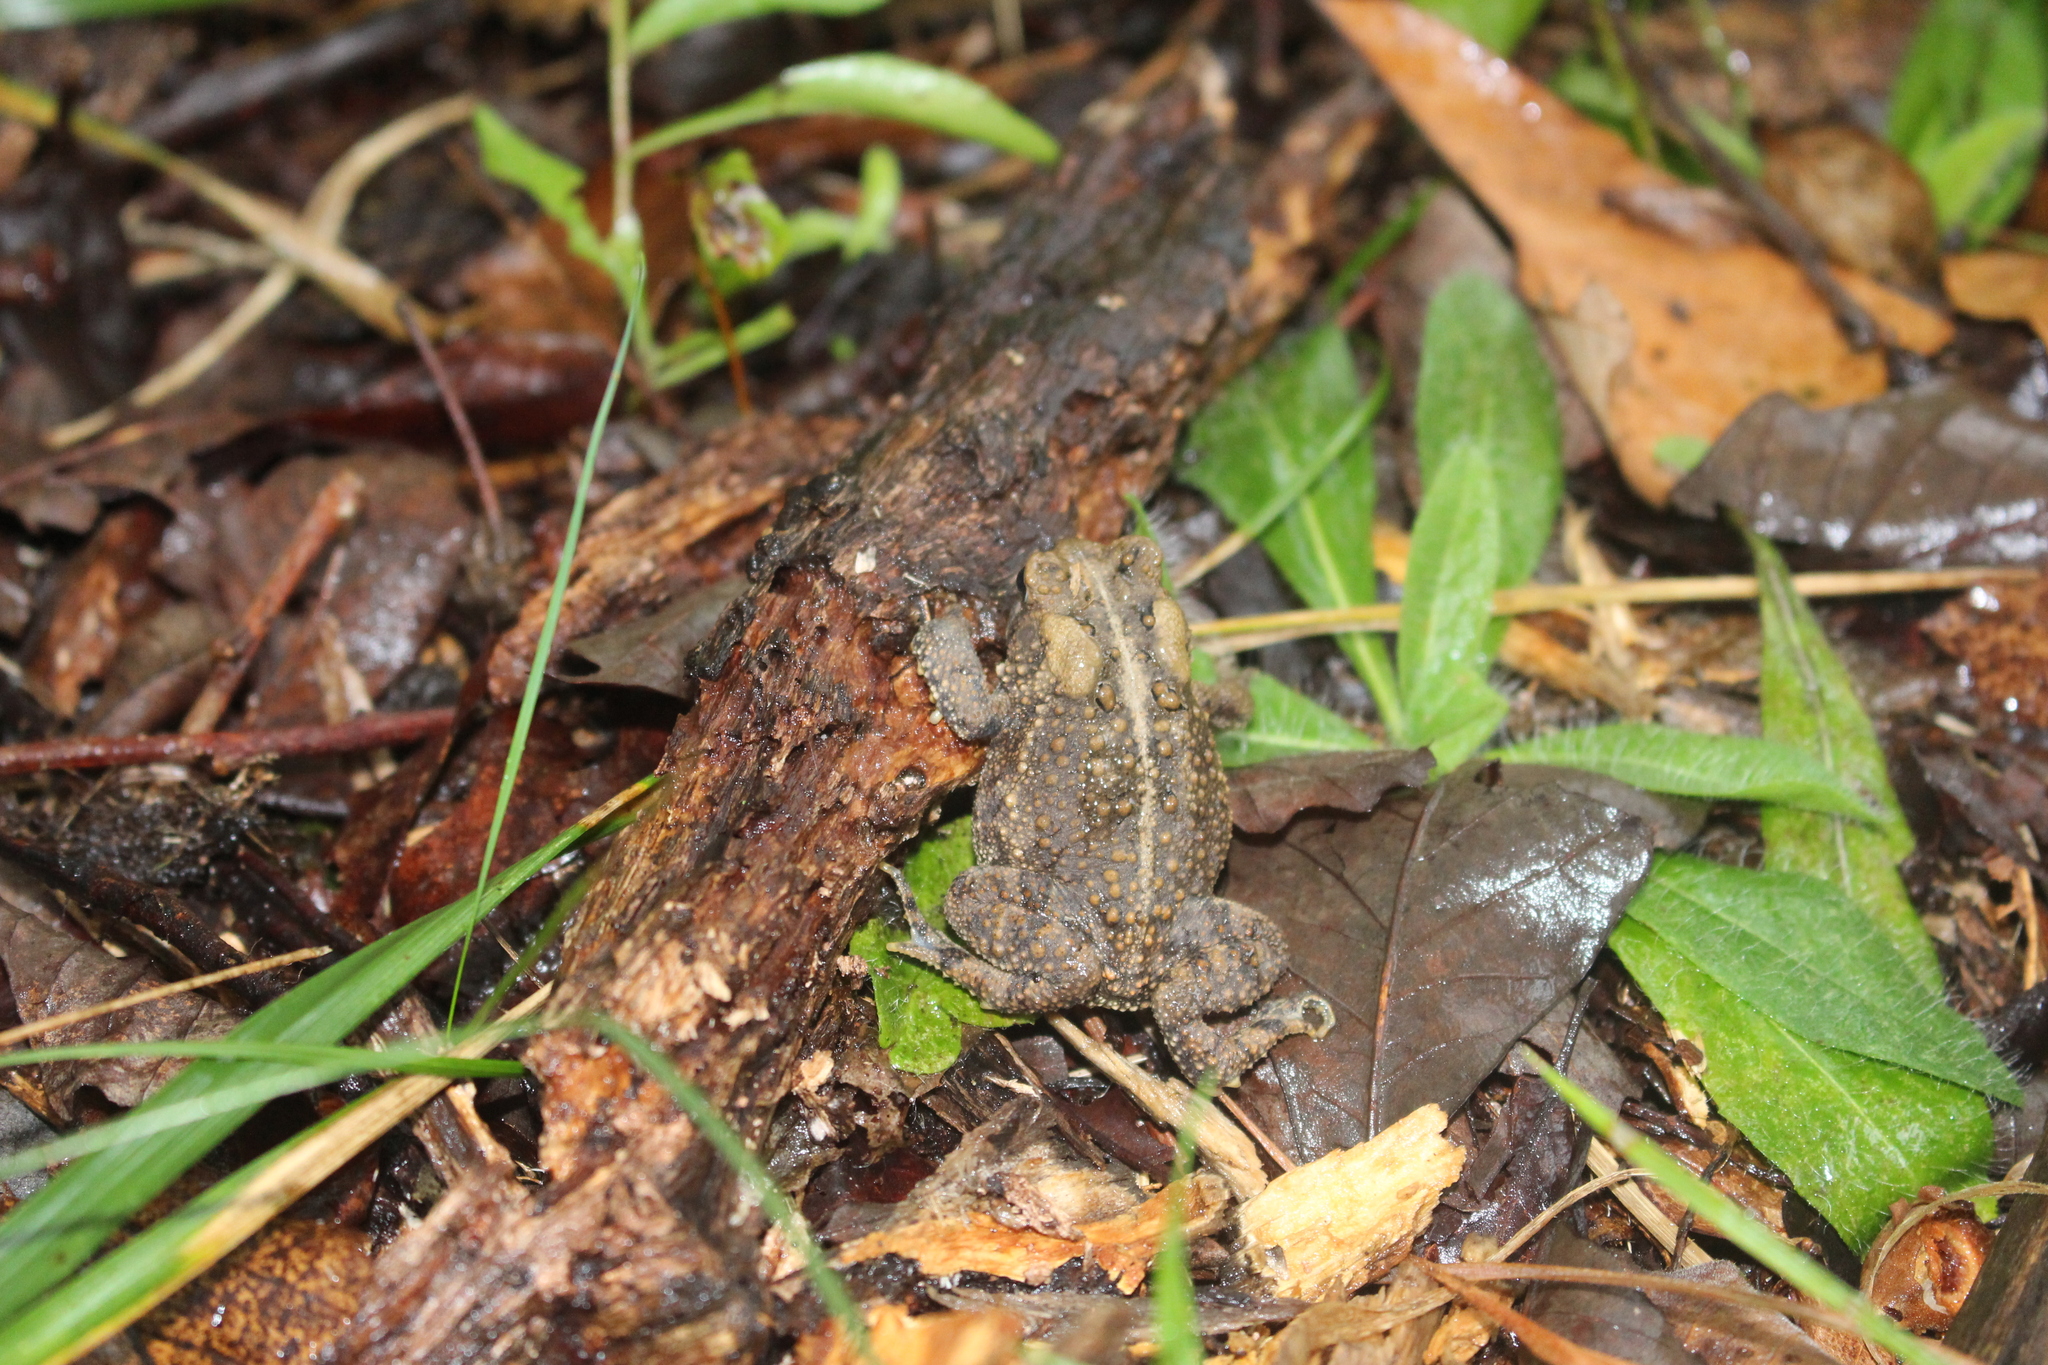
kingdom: Animalia
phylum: Chordata
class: Amphibia
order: Anura
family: Bufonidae
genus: Anaxyrus
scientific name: Anaxyrus americanus
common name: American toad
